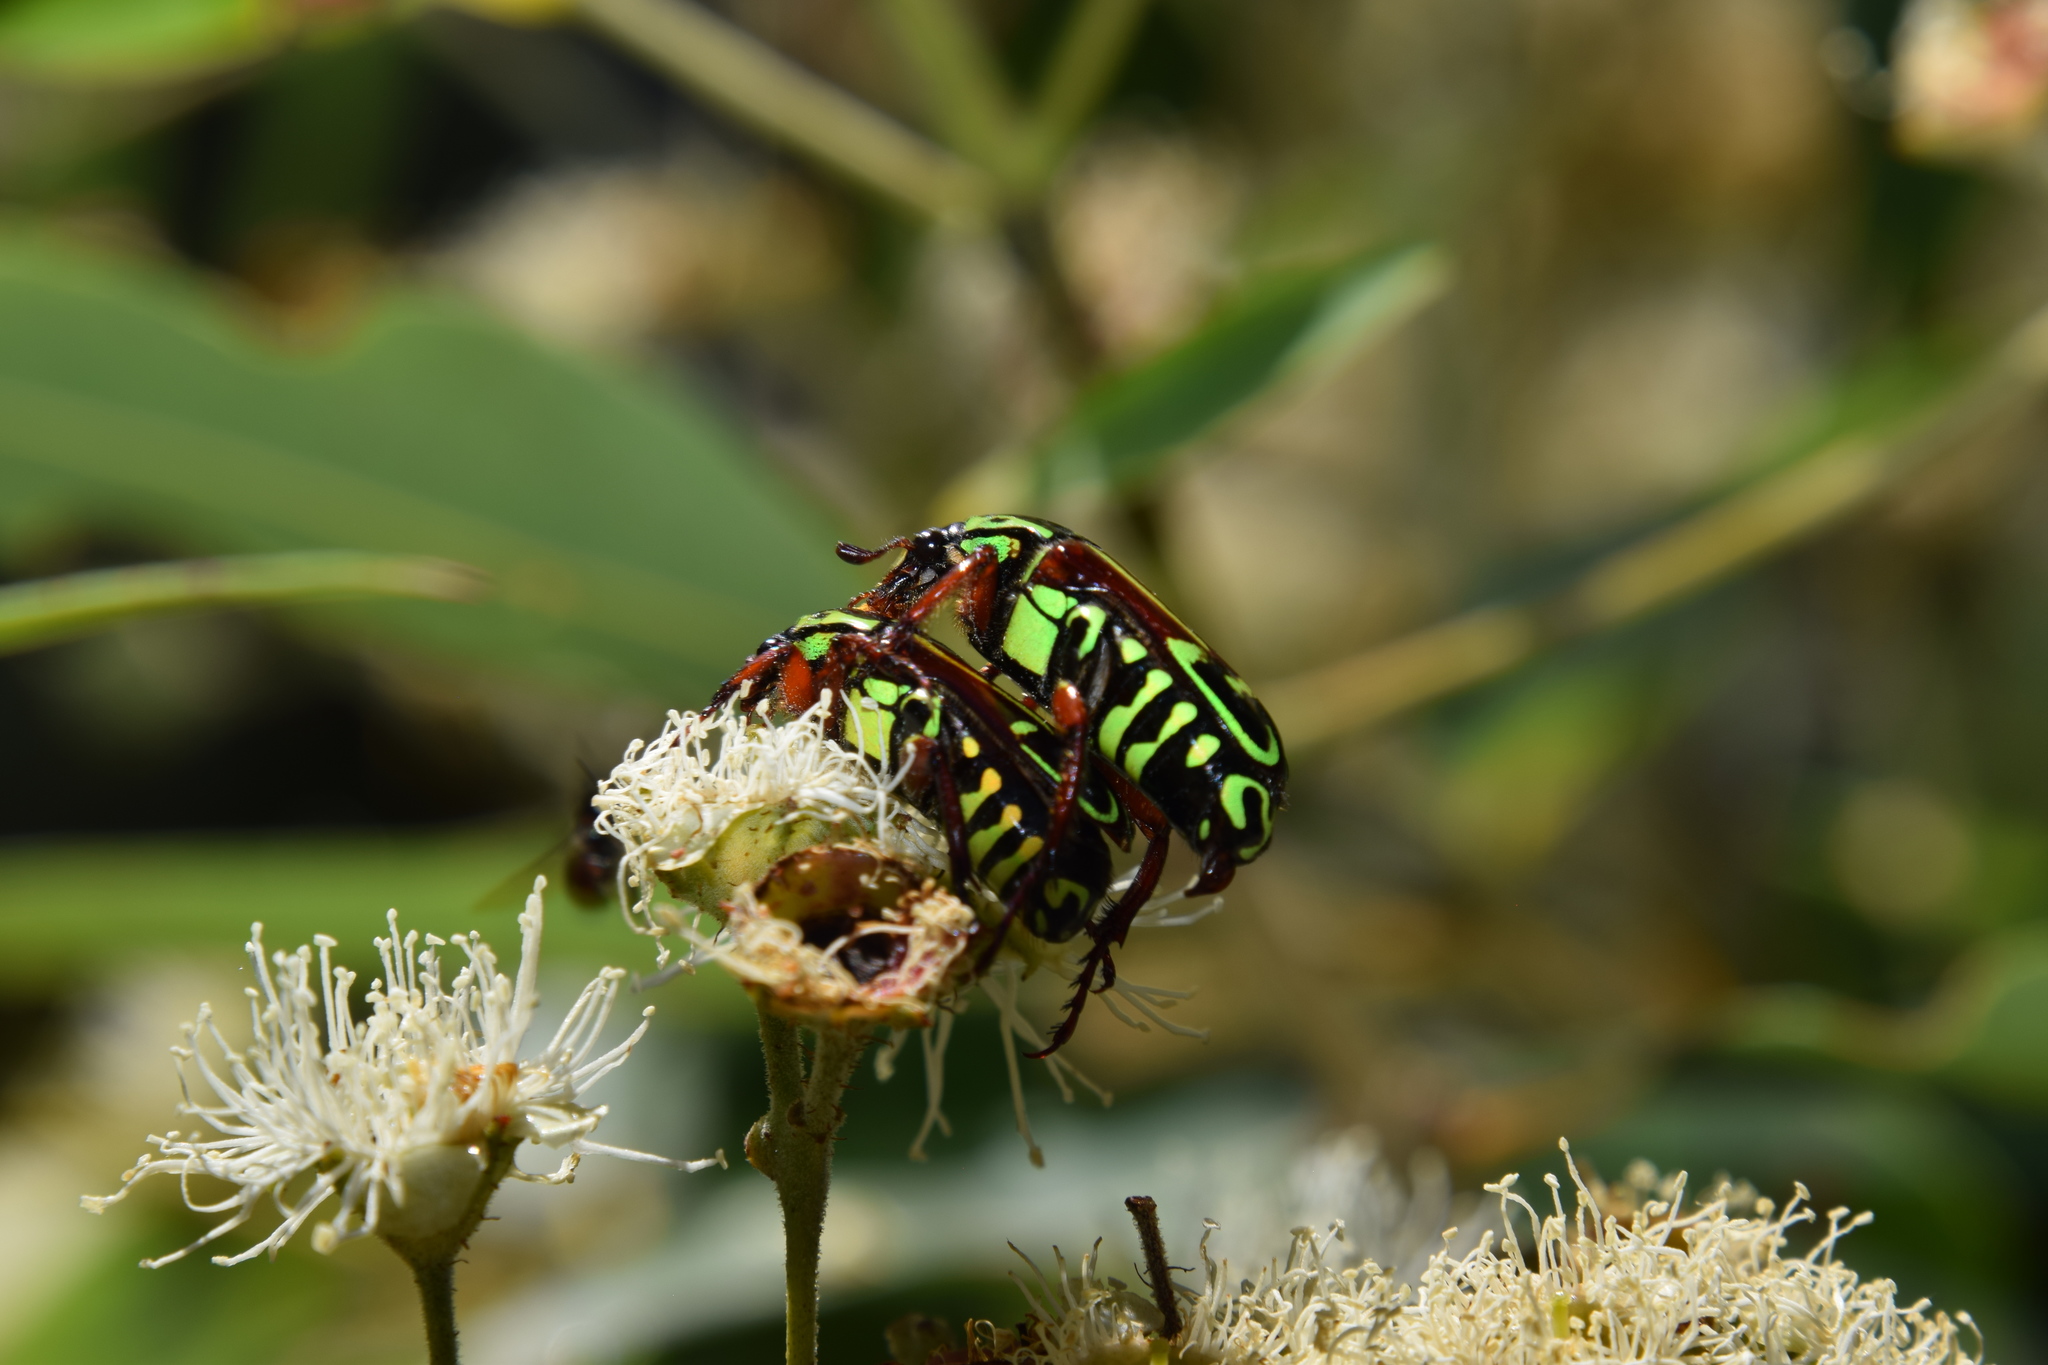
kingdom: Animalia
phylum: Arthropoda
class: Insecta
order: Coleoptera
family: Scarabaeidae
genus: Eupoecila
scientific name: Eupoecila australasiae
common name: Fiddler beetle
